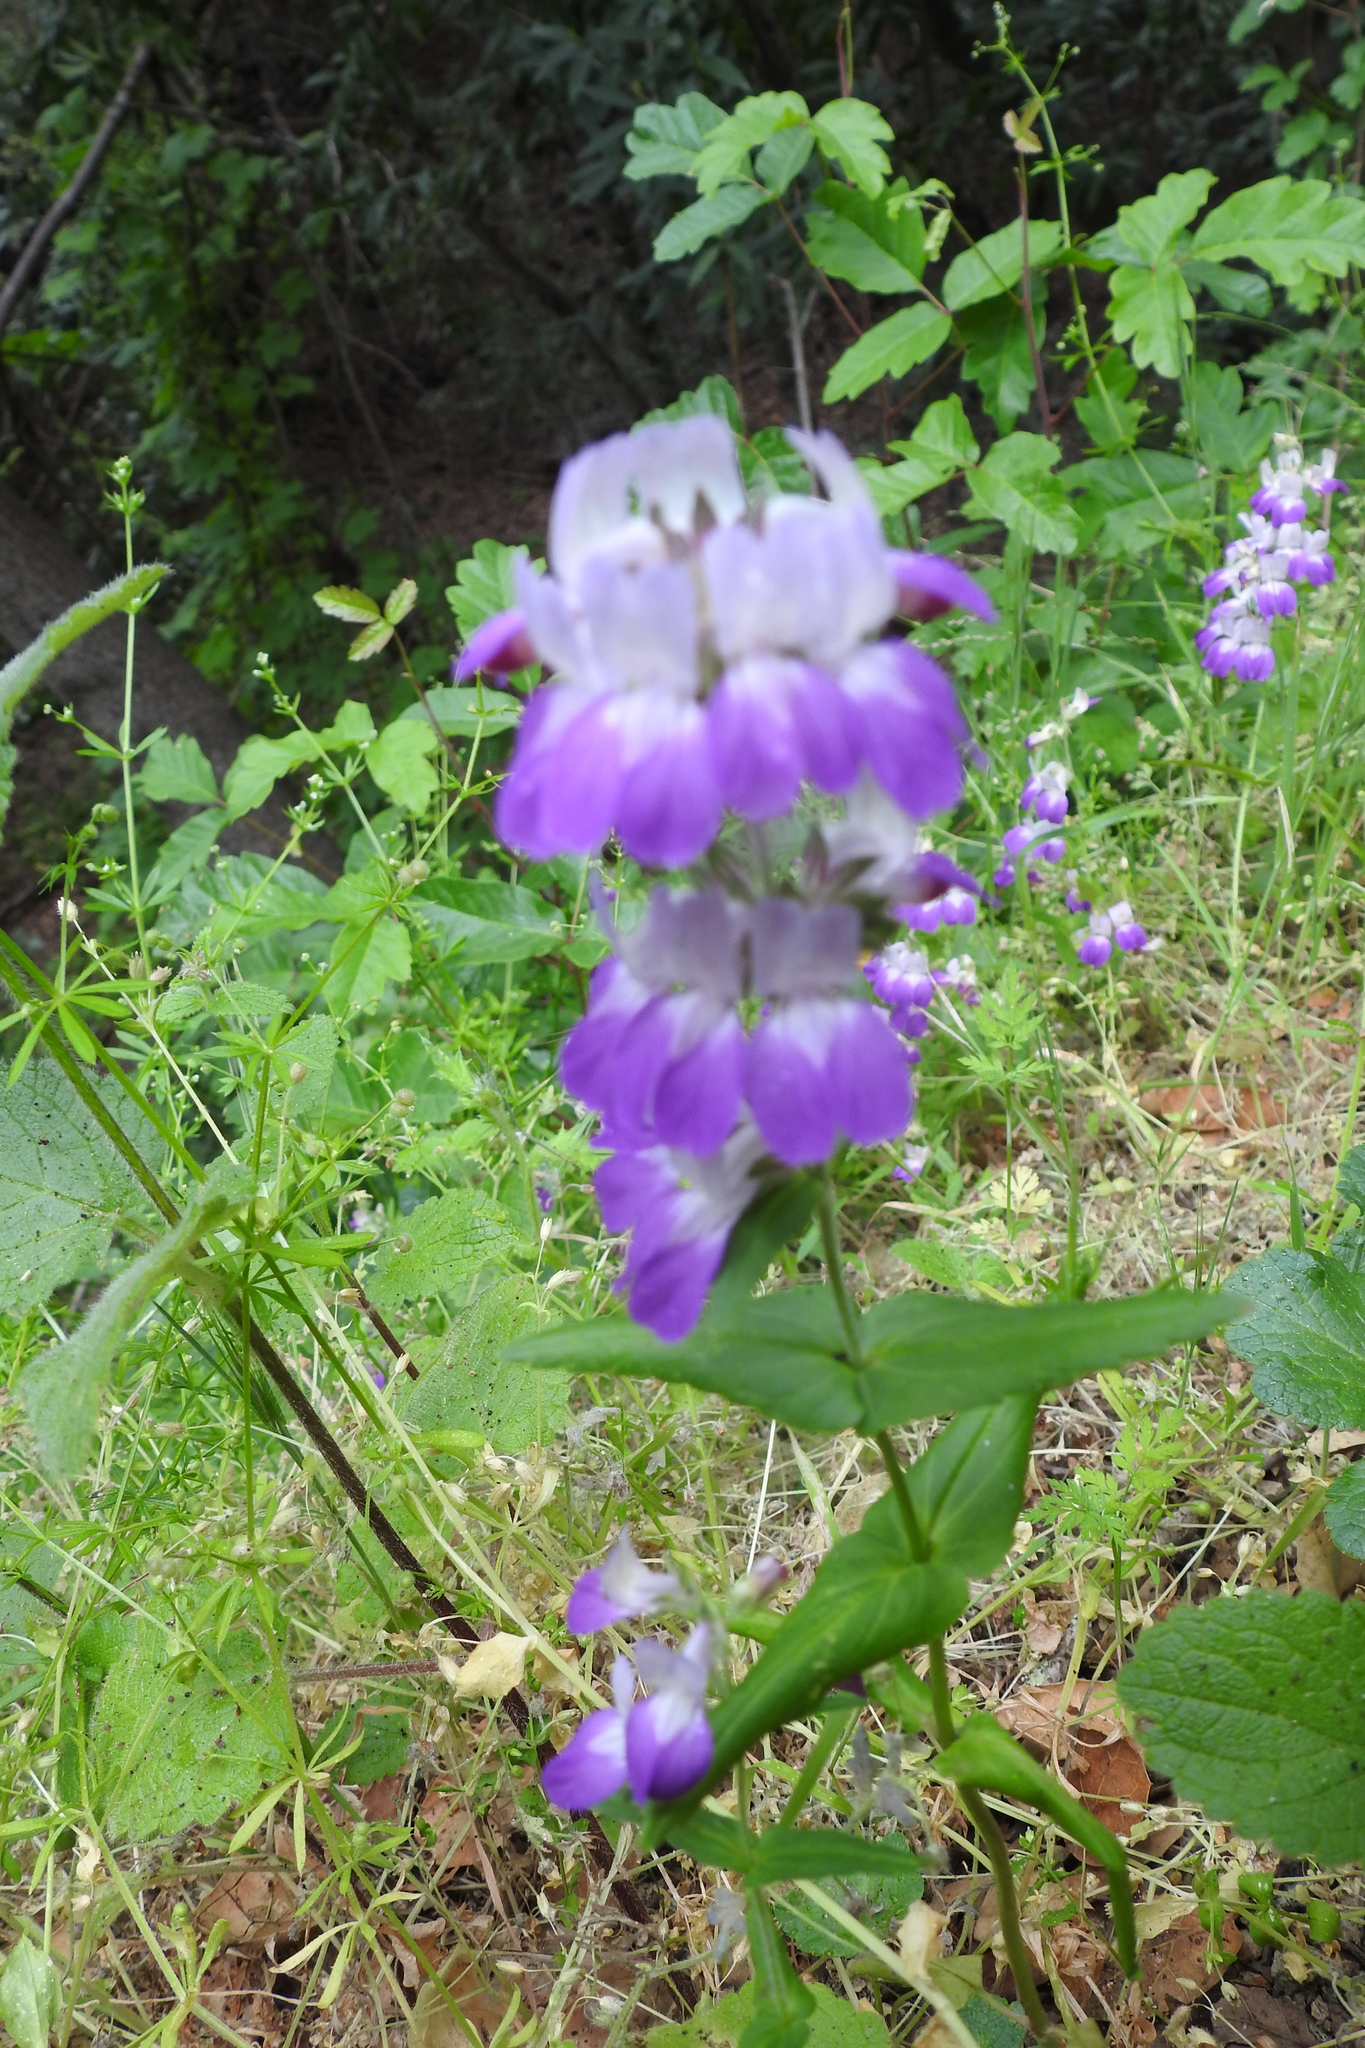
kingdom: Plantae
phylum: Tracheophyta
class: Magnoliopsida
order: Lamiales
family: Plantaginaceae
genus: Collinsia
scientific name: Collinsia heterophylla
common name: Chinese-houses
